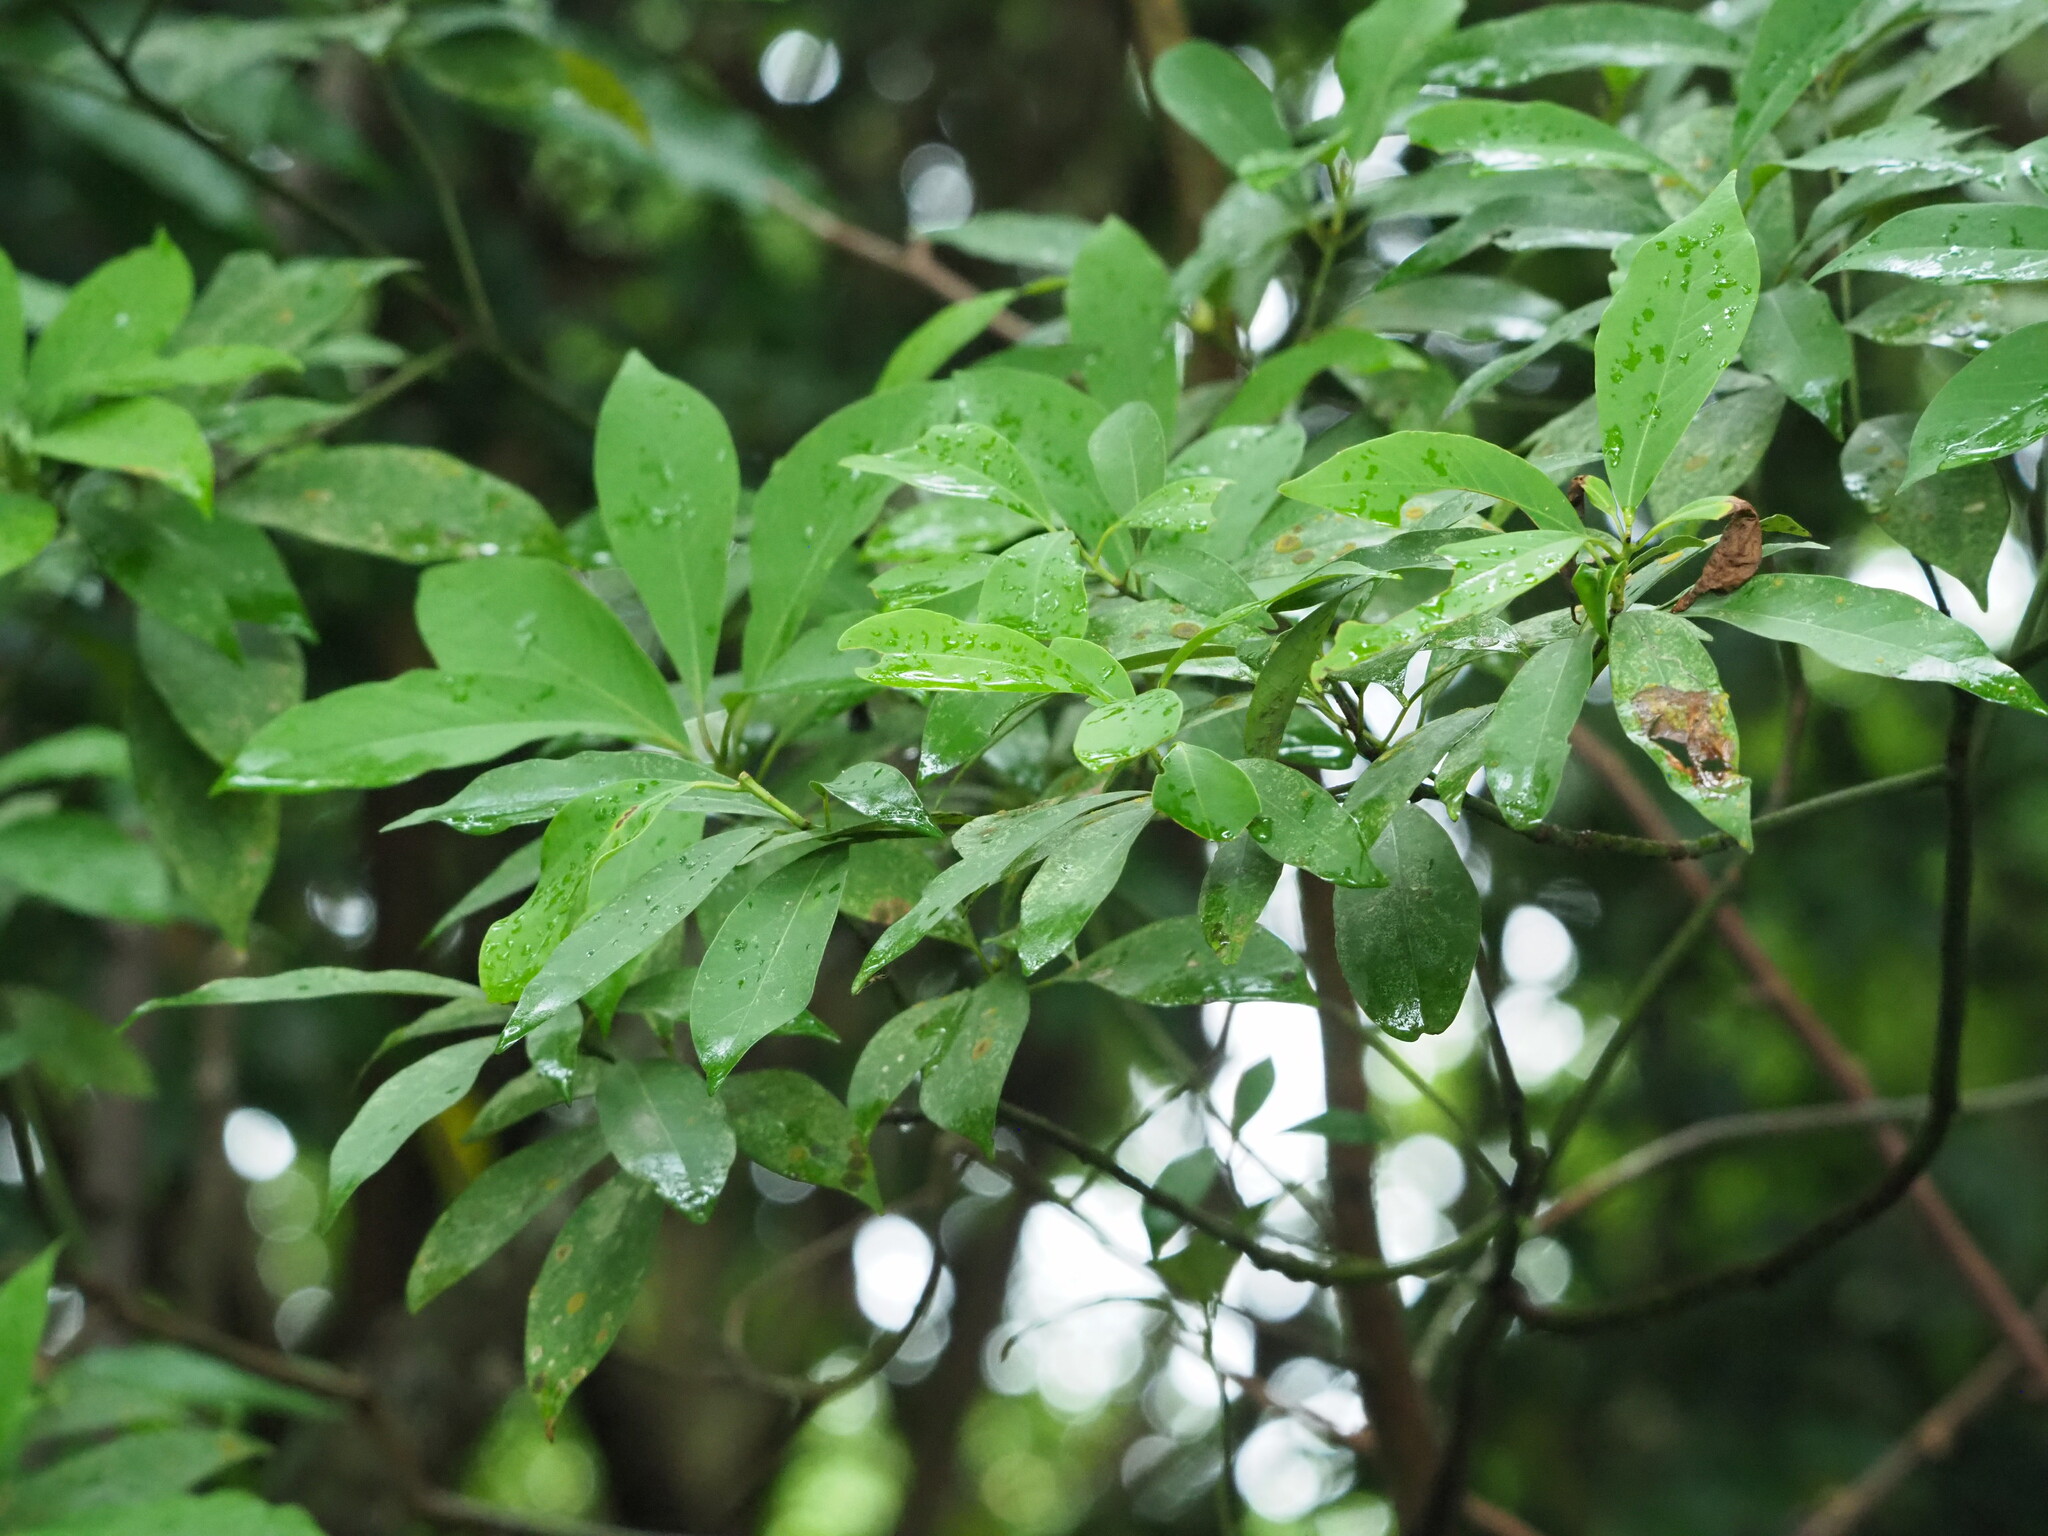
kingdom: Plantae
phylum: Tracheophyta
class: Magnoliopsida
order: Laurales
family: Lauraceae
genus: Machilus
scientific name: Machilus zuihoensis
